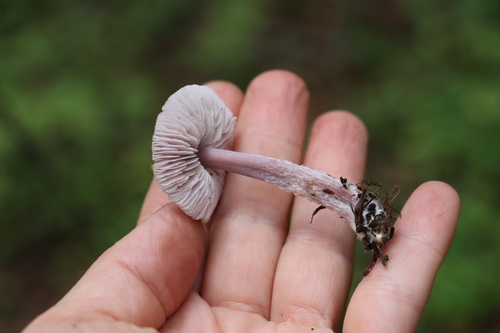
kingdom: Fungi
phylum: Basidiomycota
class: Agaricomycetes
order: Agaricales
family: Mycenaceae
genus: Mycena
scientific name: Mycena pura
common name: Lilac bonnet
